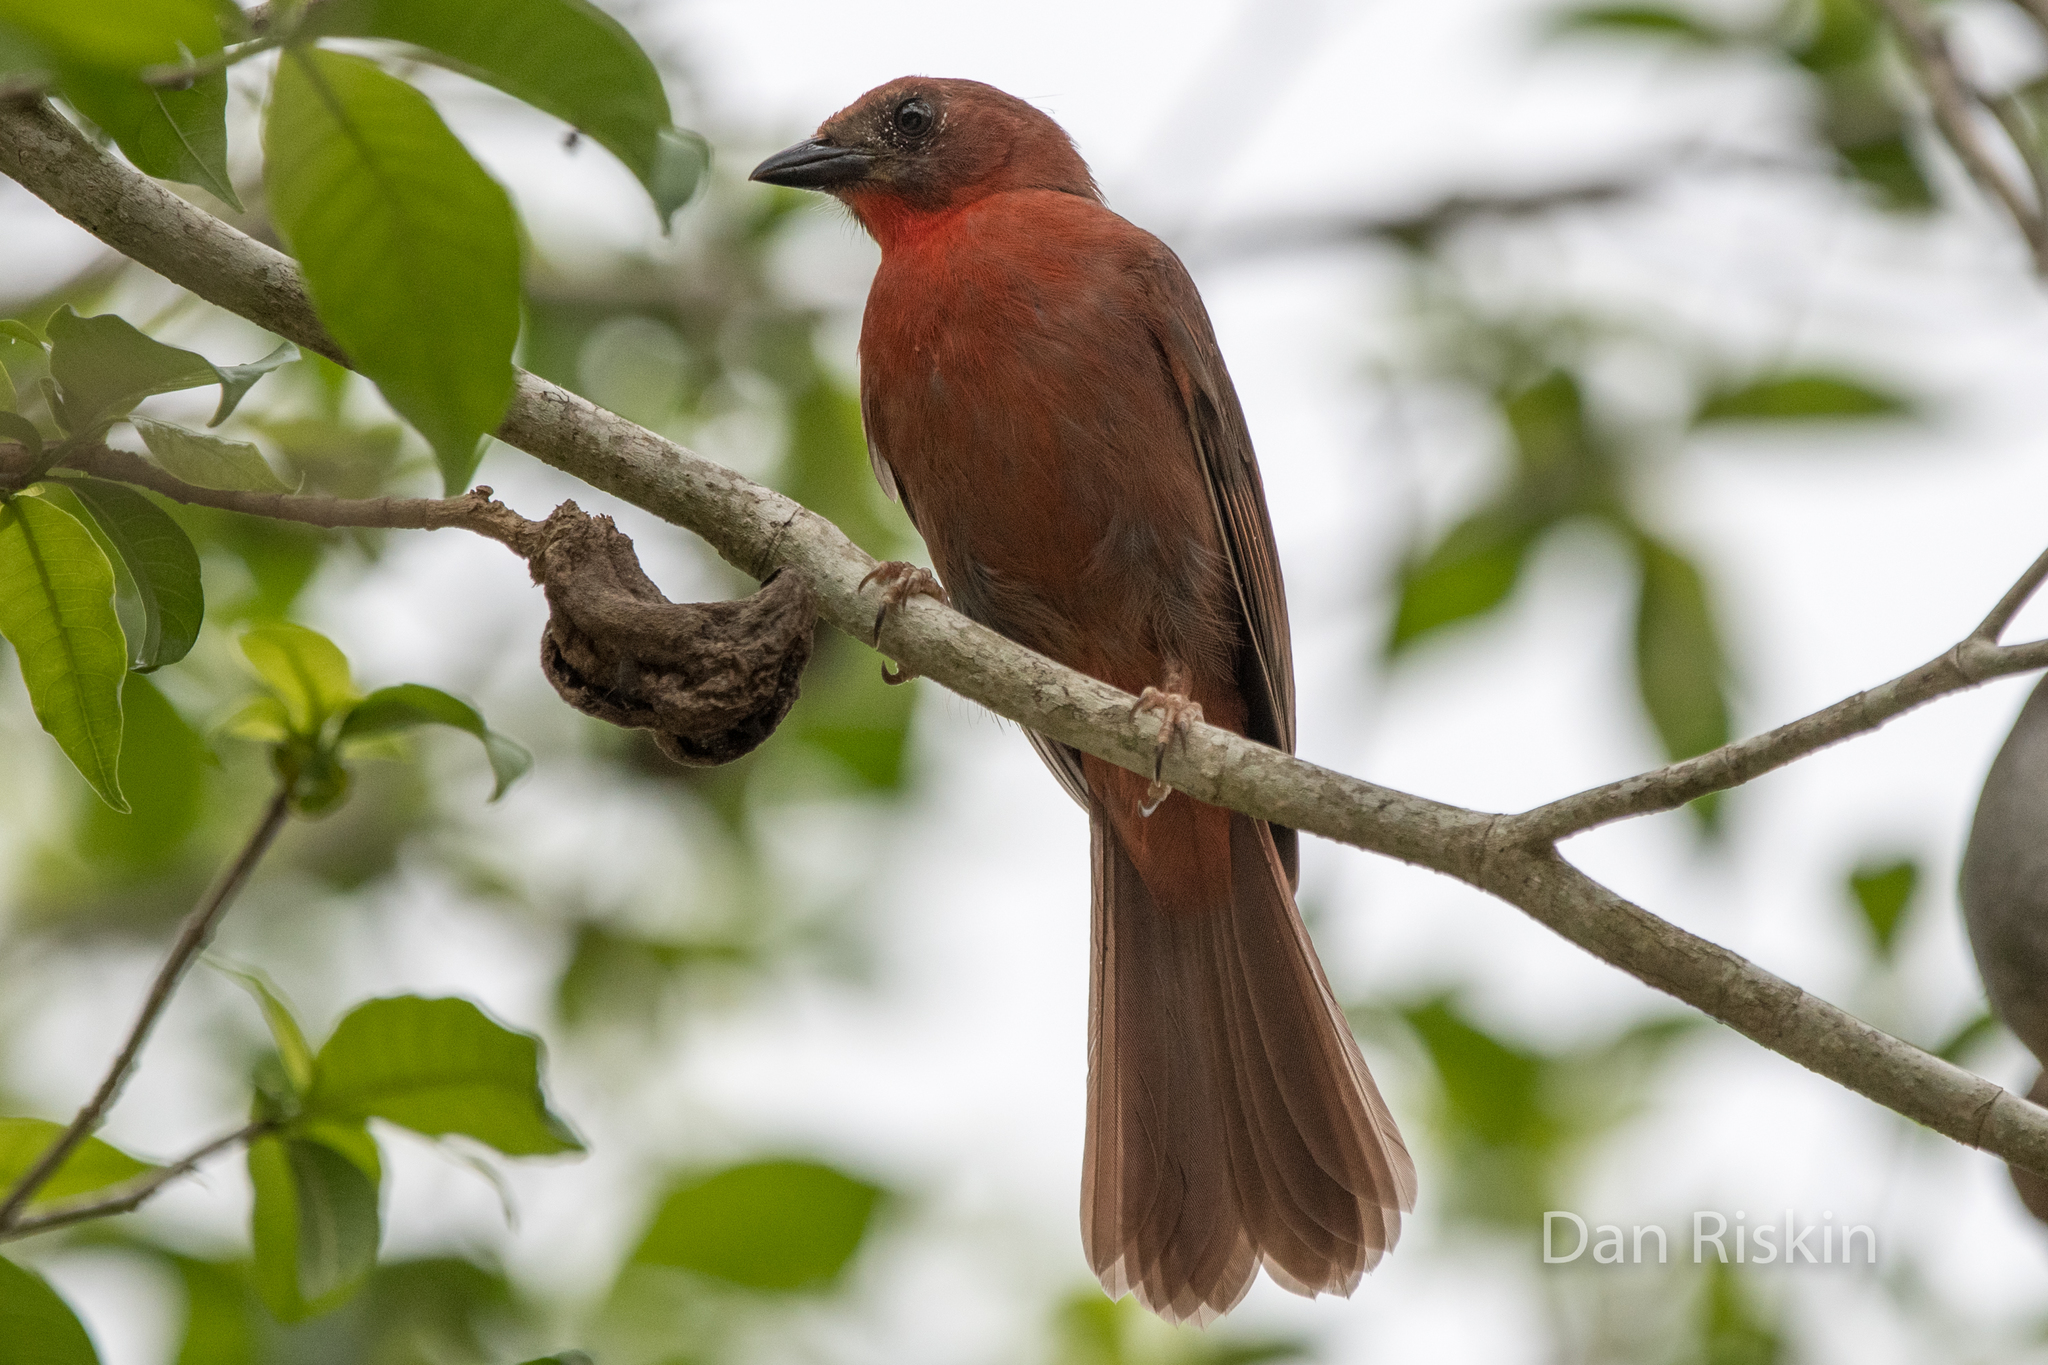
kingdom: Animalia
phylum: Chordata
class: Aves
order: Passeriformes
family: Cardinalidae
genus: Habia
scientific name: Habia fuscicauda
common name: Red-throated ant-tanager
